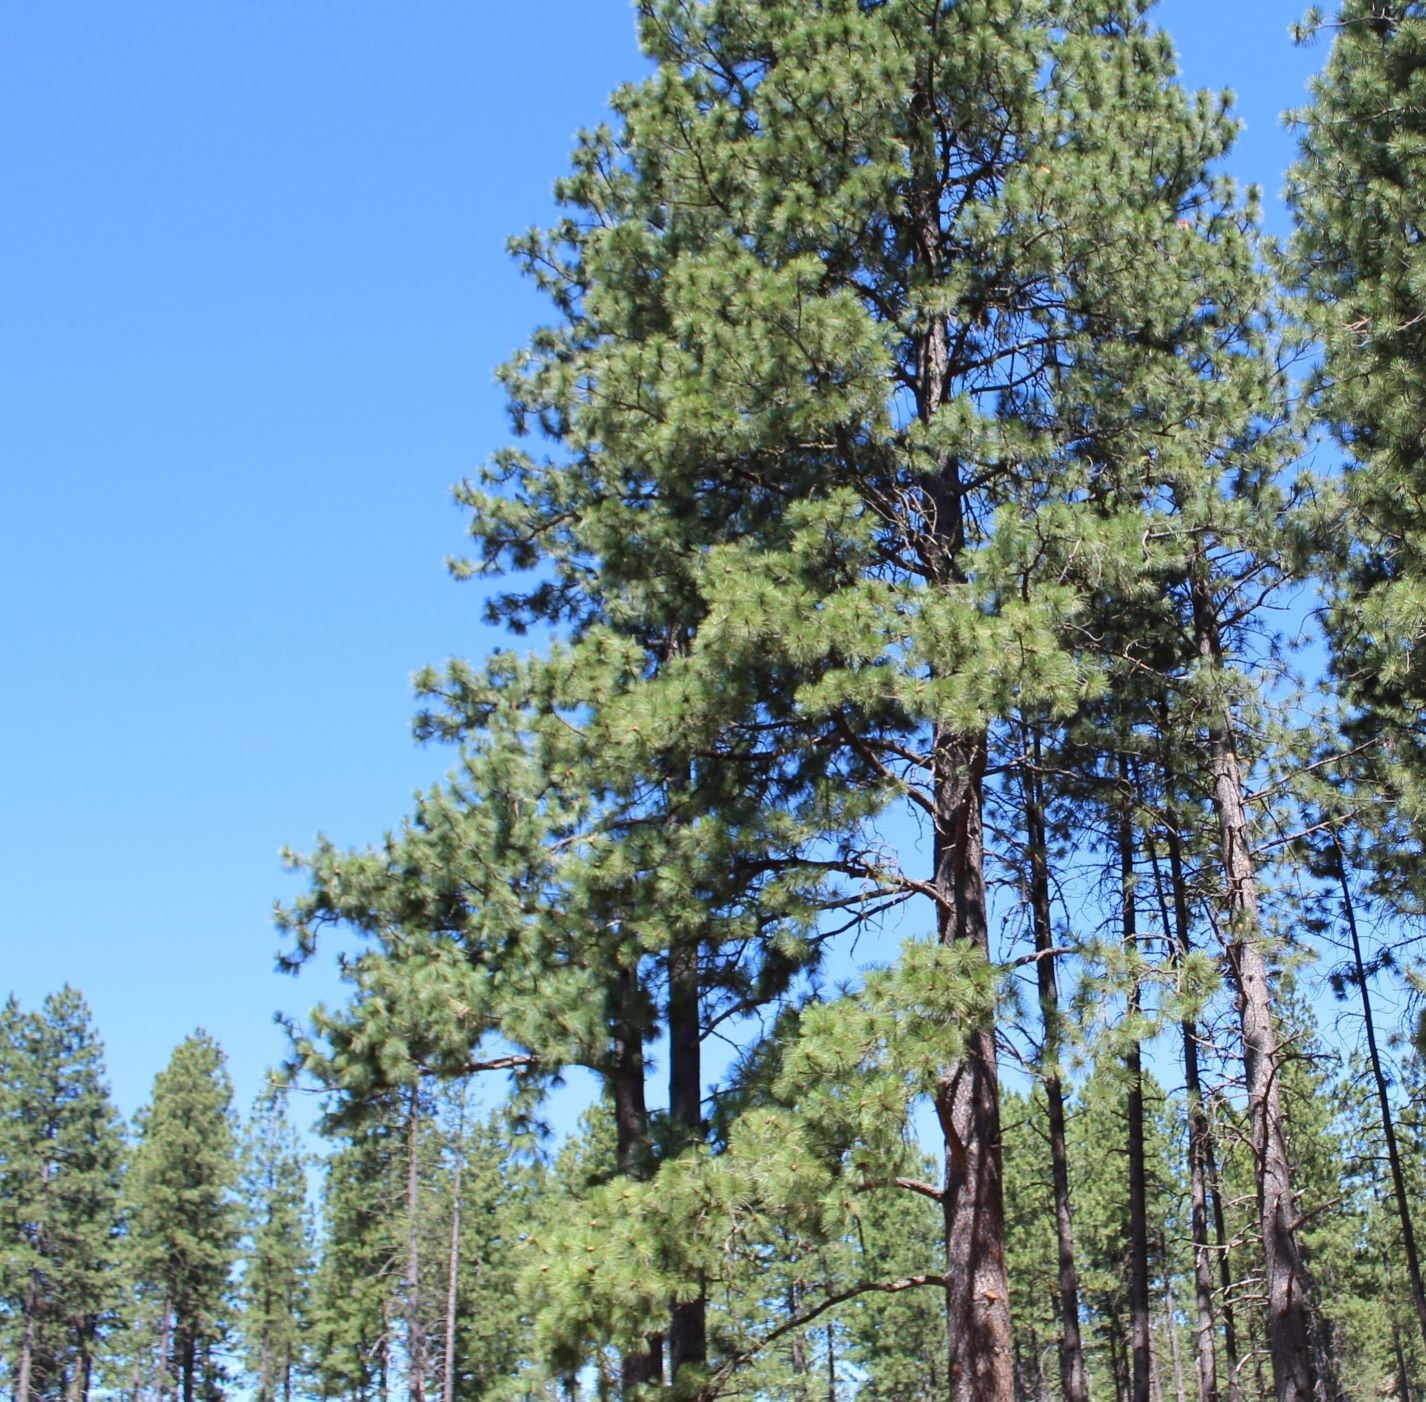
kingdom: Plantae
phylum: Tracheophyta
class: Pinopsida
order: Pinales
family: Pinaceae
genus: Pinus
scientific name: Pinus ponderosa
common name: Western yellow-pine
